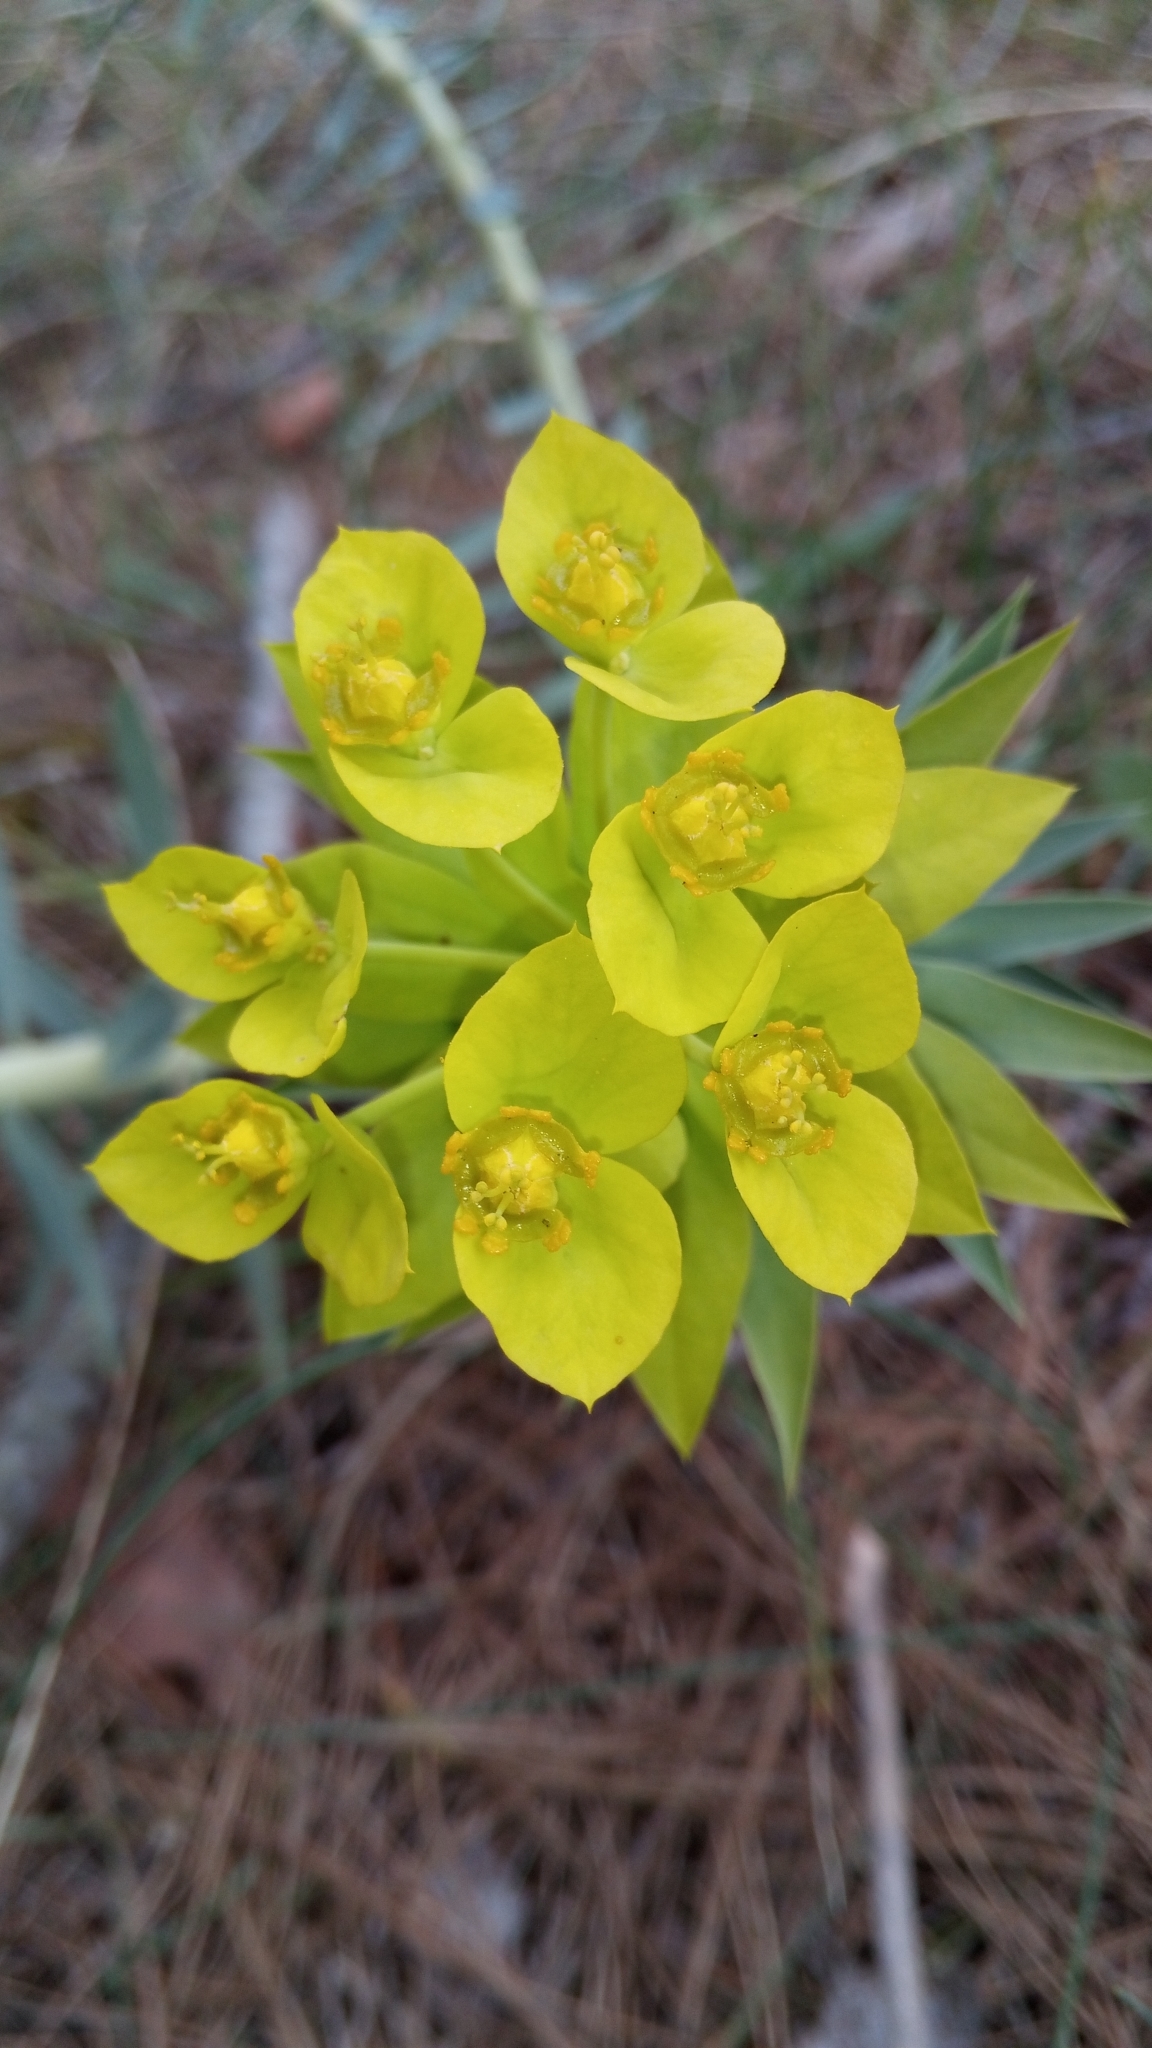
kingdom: Plantae
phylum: Tracheophyta
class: Magnoliopsida
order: Malpighiales
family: Euphorbiaceae
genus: Euphorbia
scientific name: Euphorbia rigida
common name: Upright myrtle spurge
